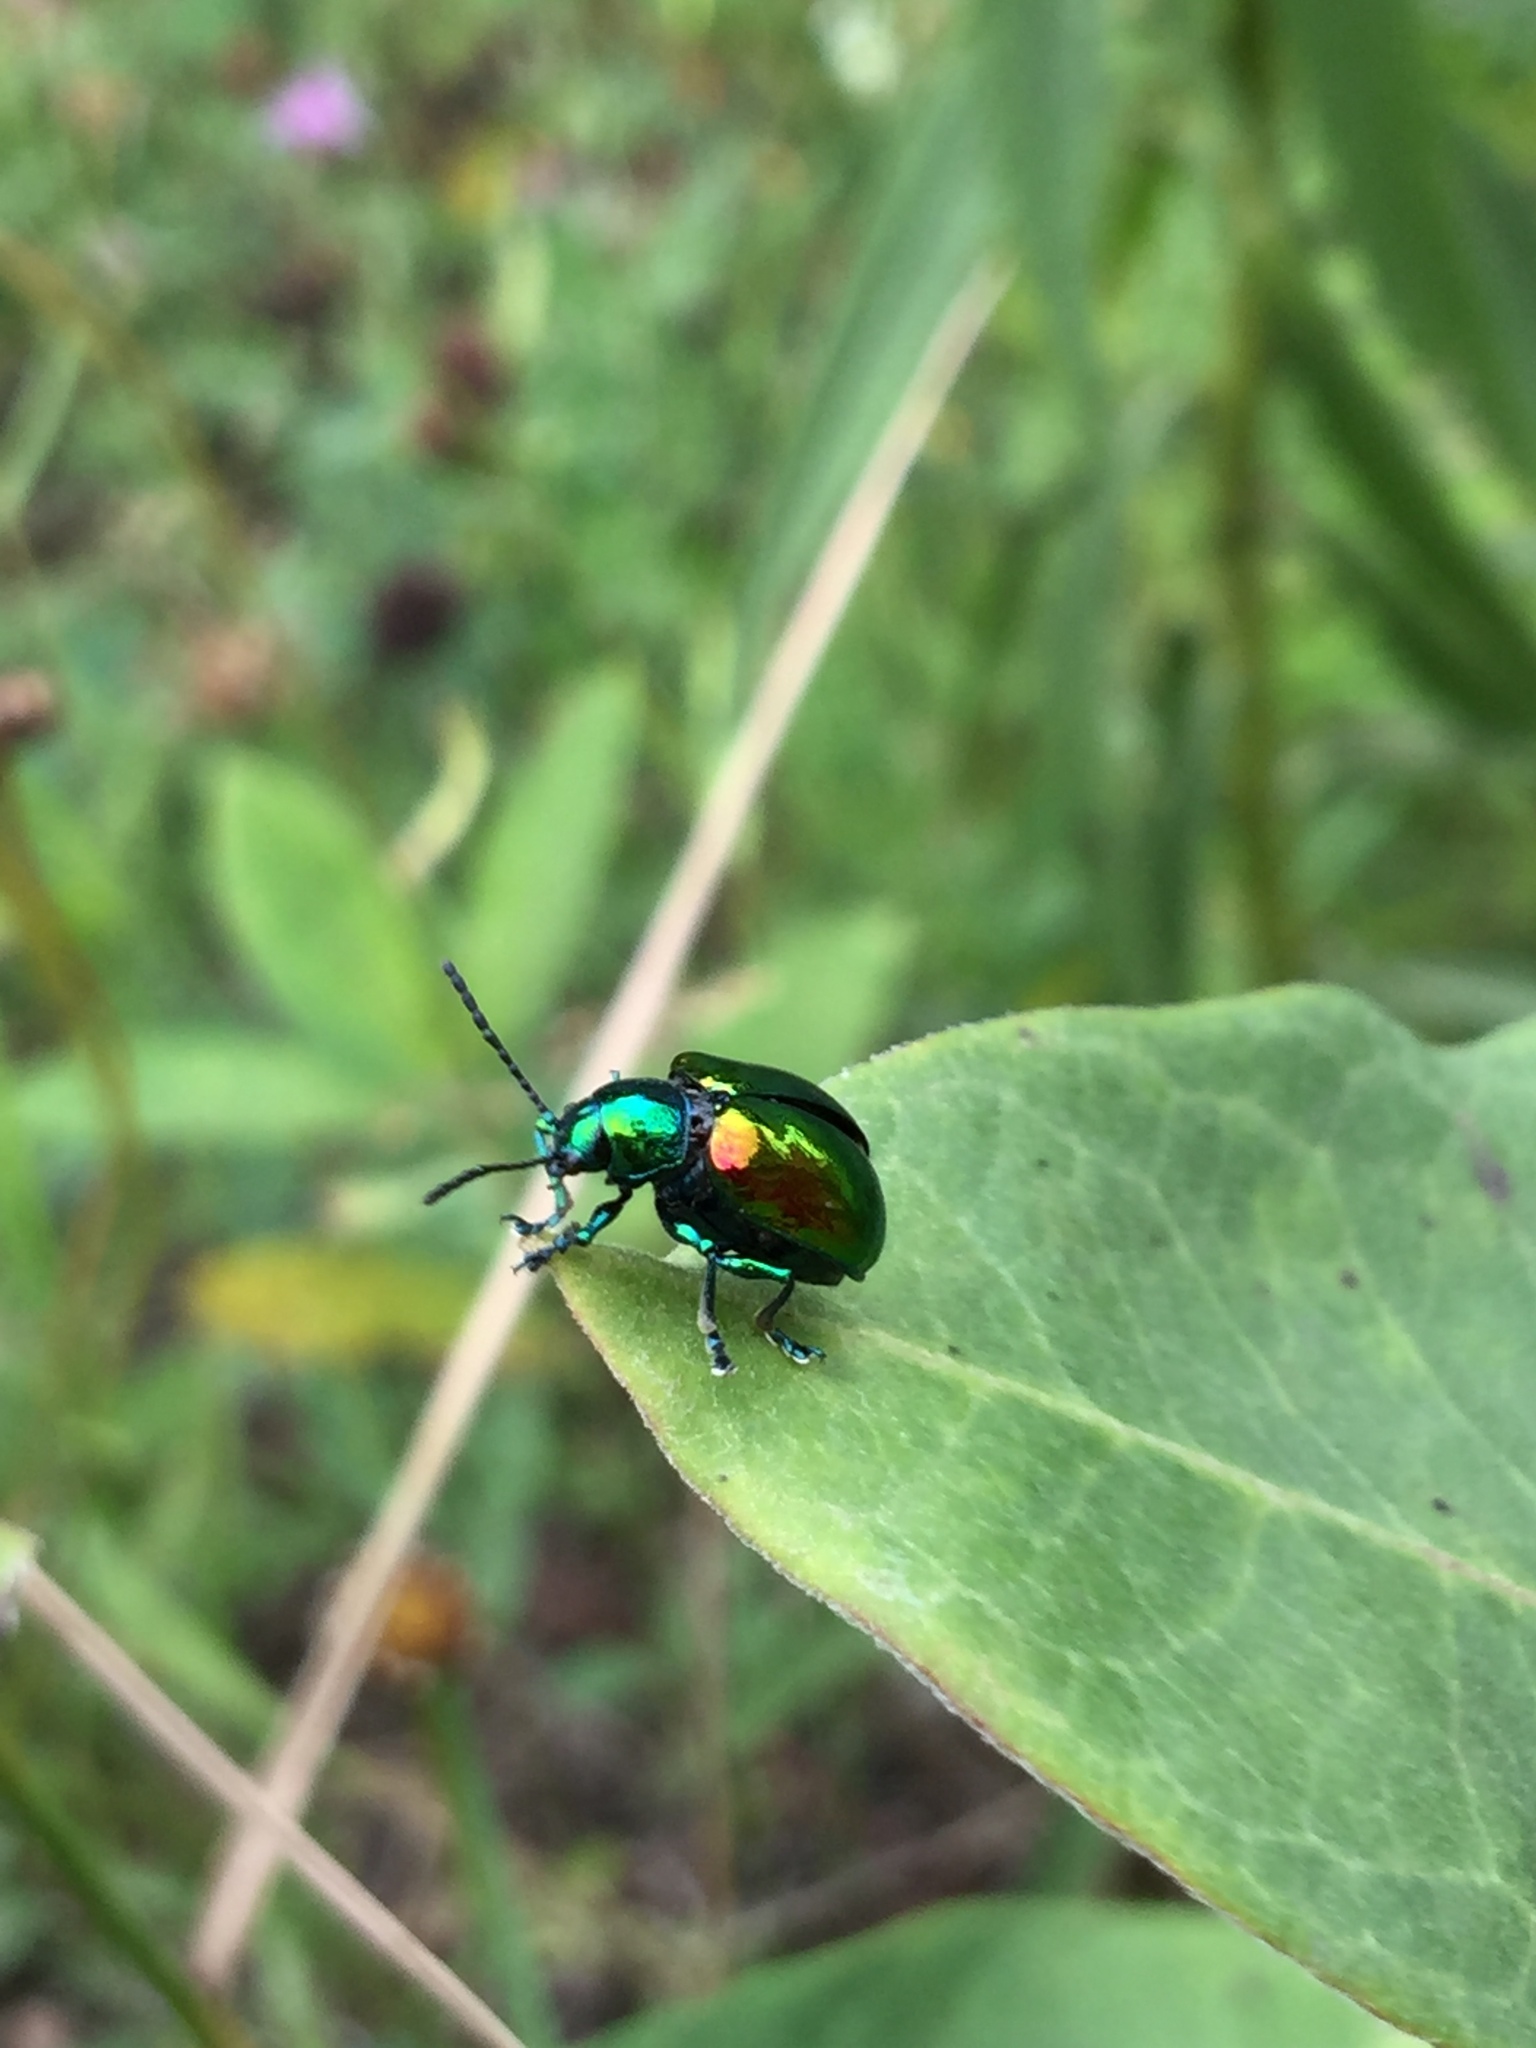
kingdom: Animalia
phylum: Arthropoda
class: Insecta
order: Coleoptera
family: Chrysomelidae
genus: Chrysochus
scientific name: Chrysochus auratus
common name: Dogbane leaf beetle
